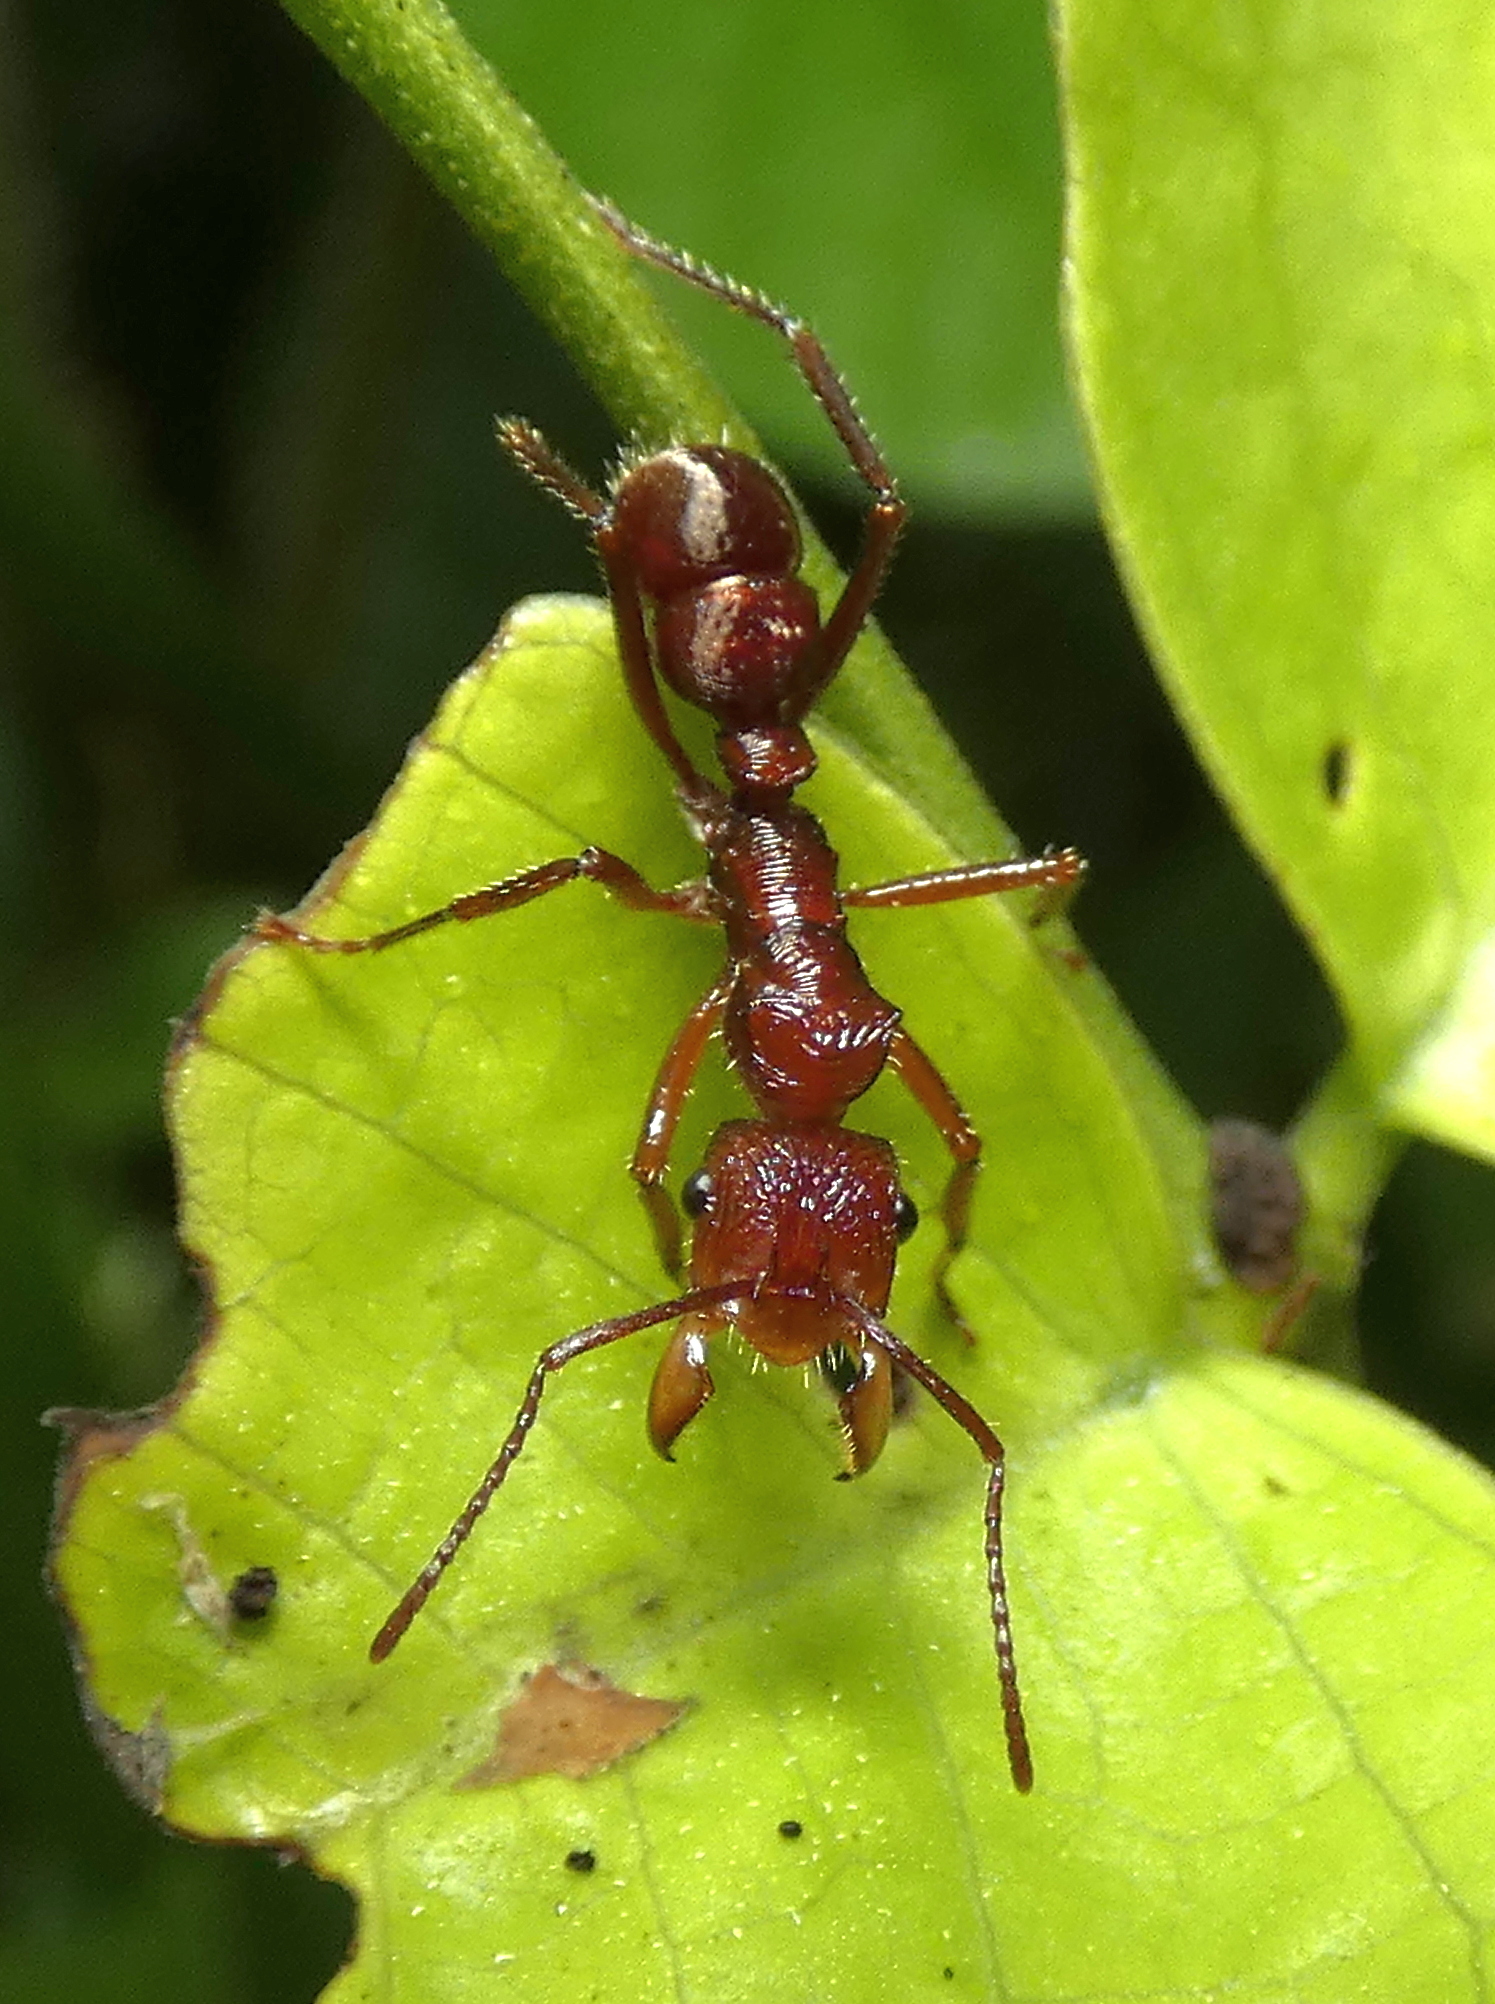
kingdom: Animalia
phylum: Arthropoda
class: Insecta
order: Hymenoptera
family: Formicidae
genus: Ectatomma
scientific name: Ectatomma tuberculatum
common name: Ant
